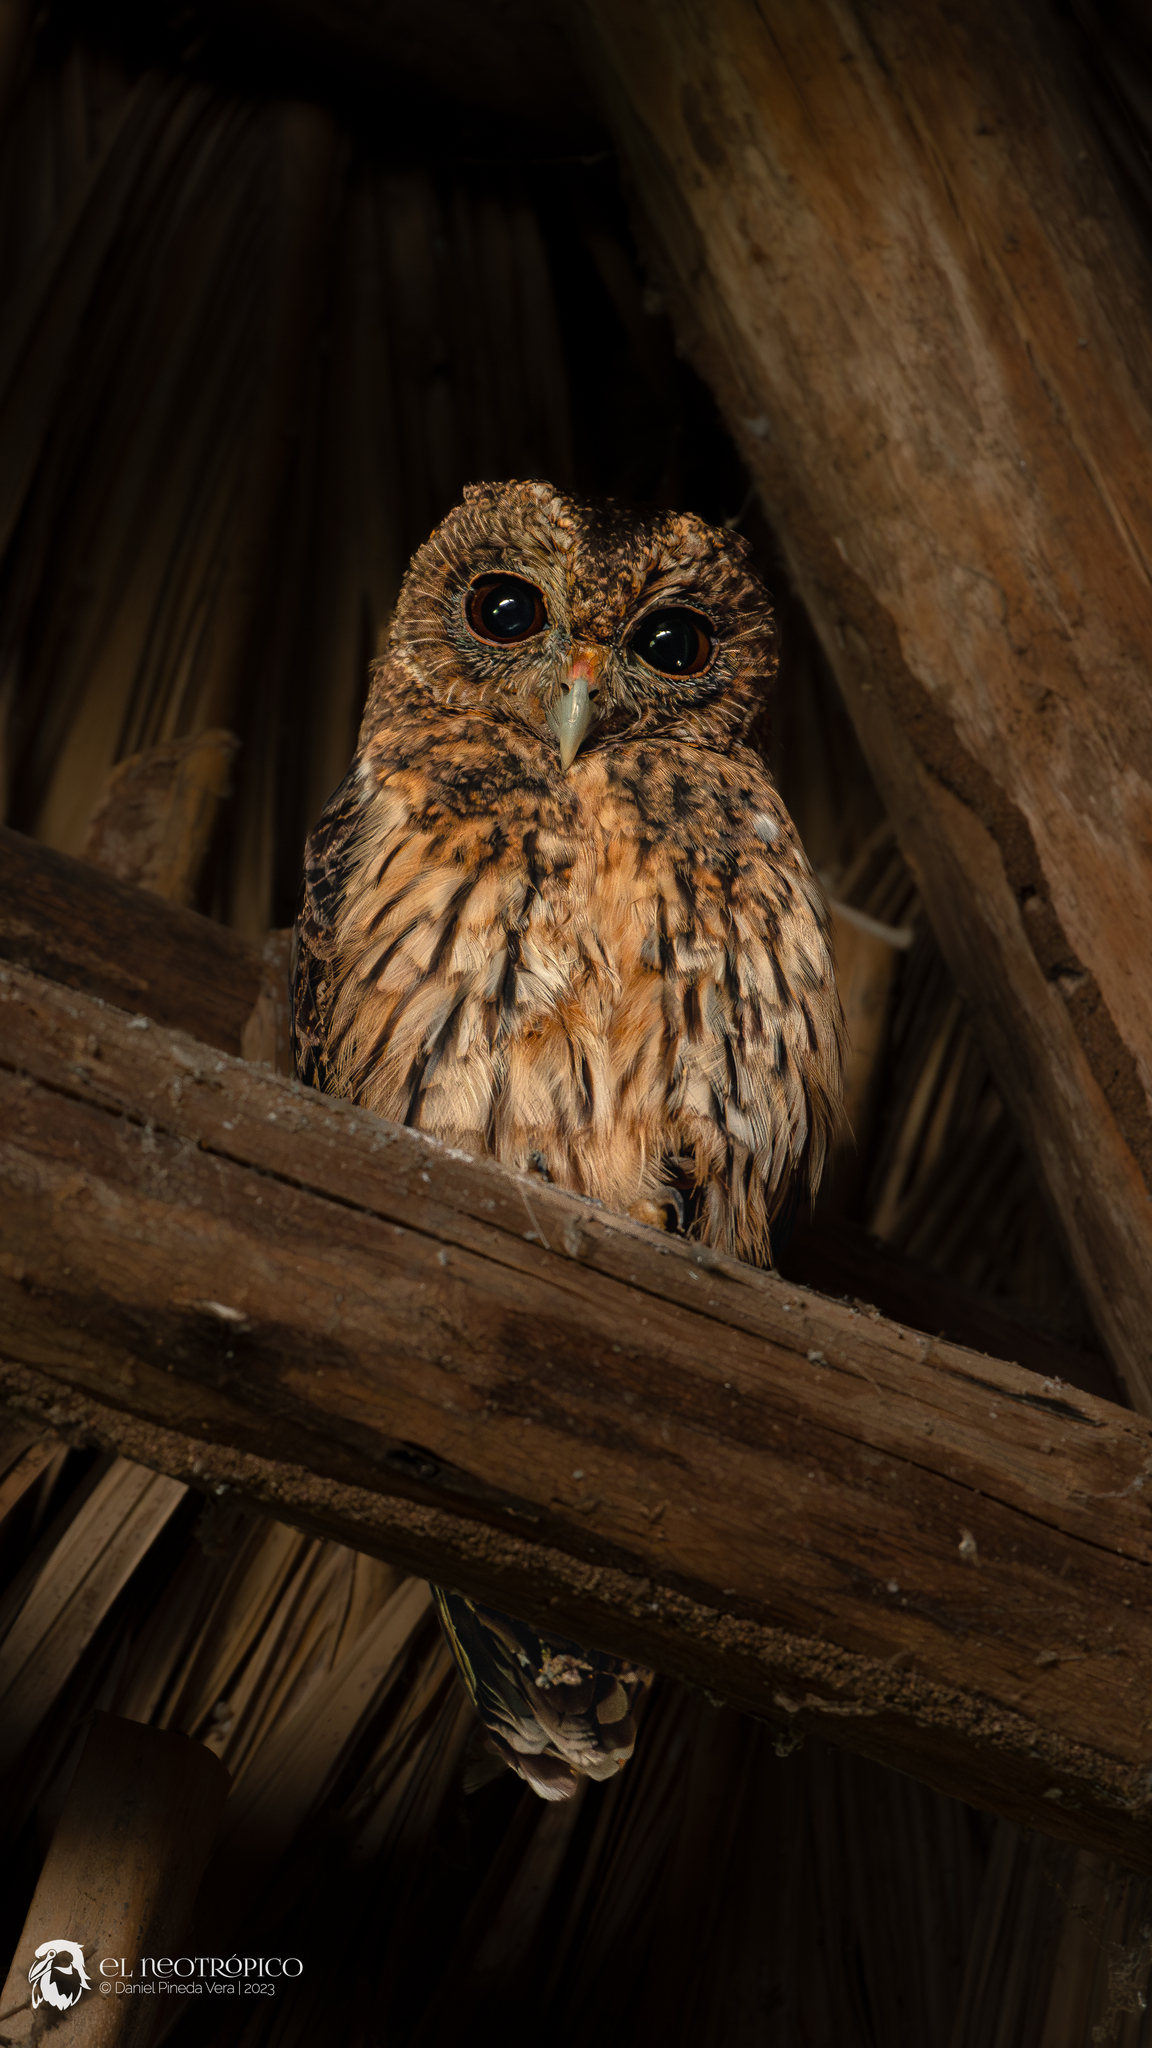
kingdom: Animalia
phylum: Chordata
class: Aves
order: Strigiformes
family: Strigidae
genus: Strix
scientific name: Strix virgata
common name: Mottled owl
